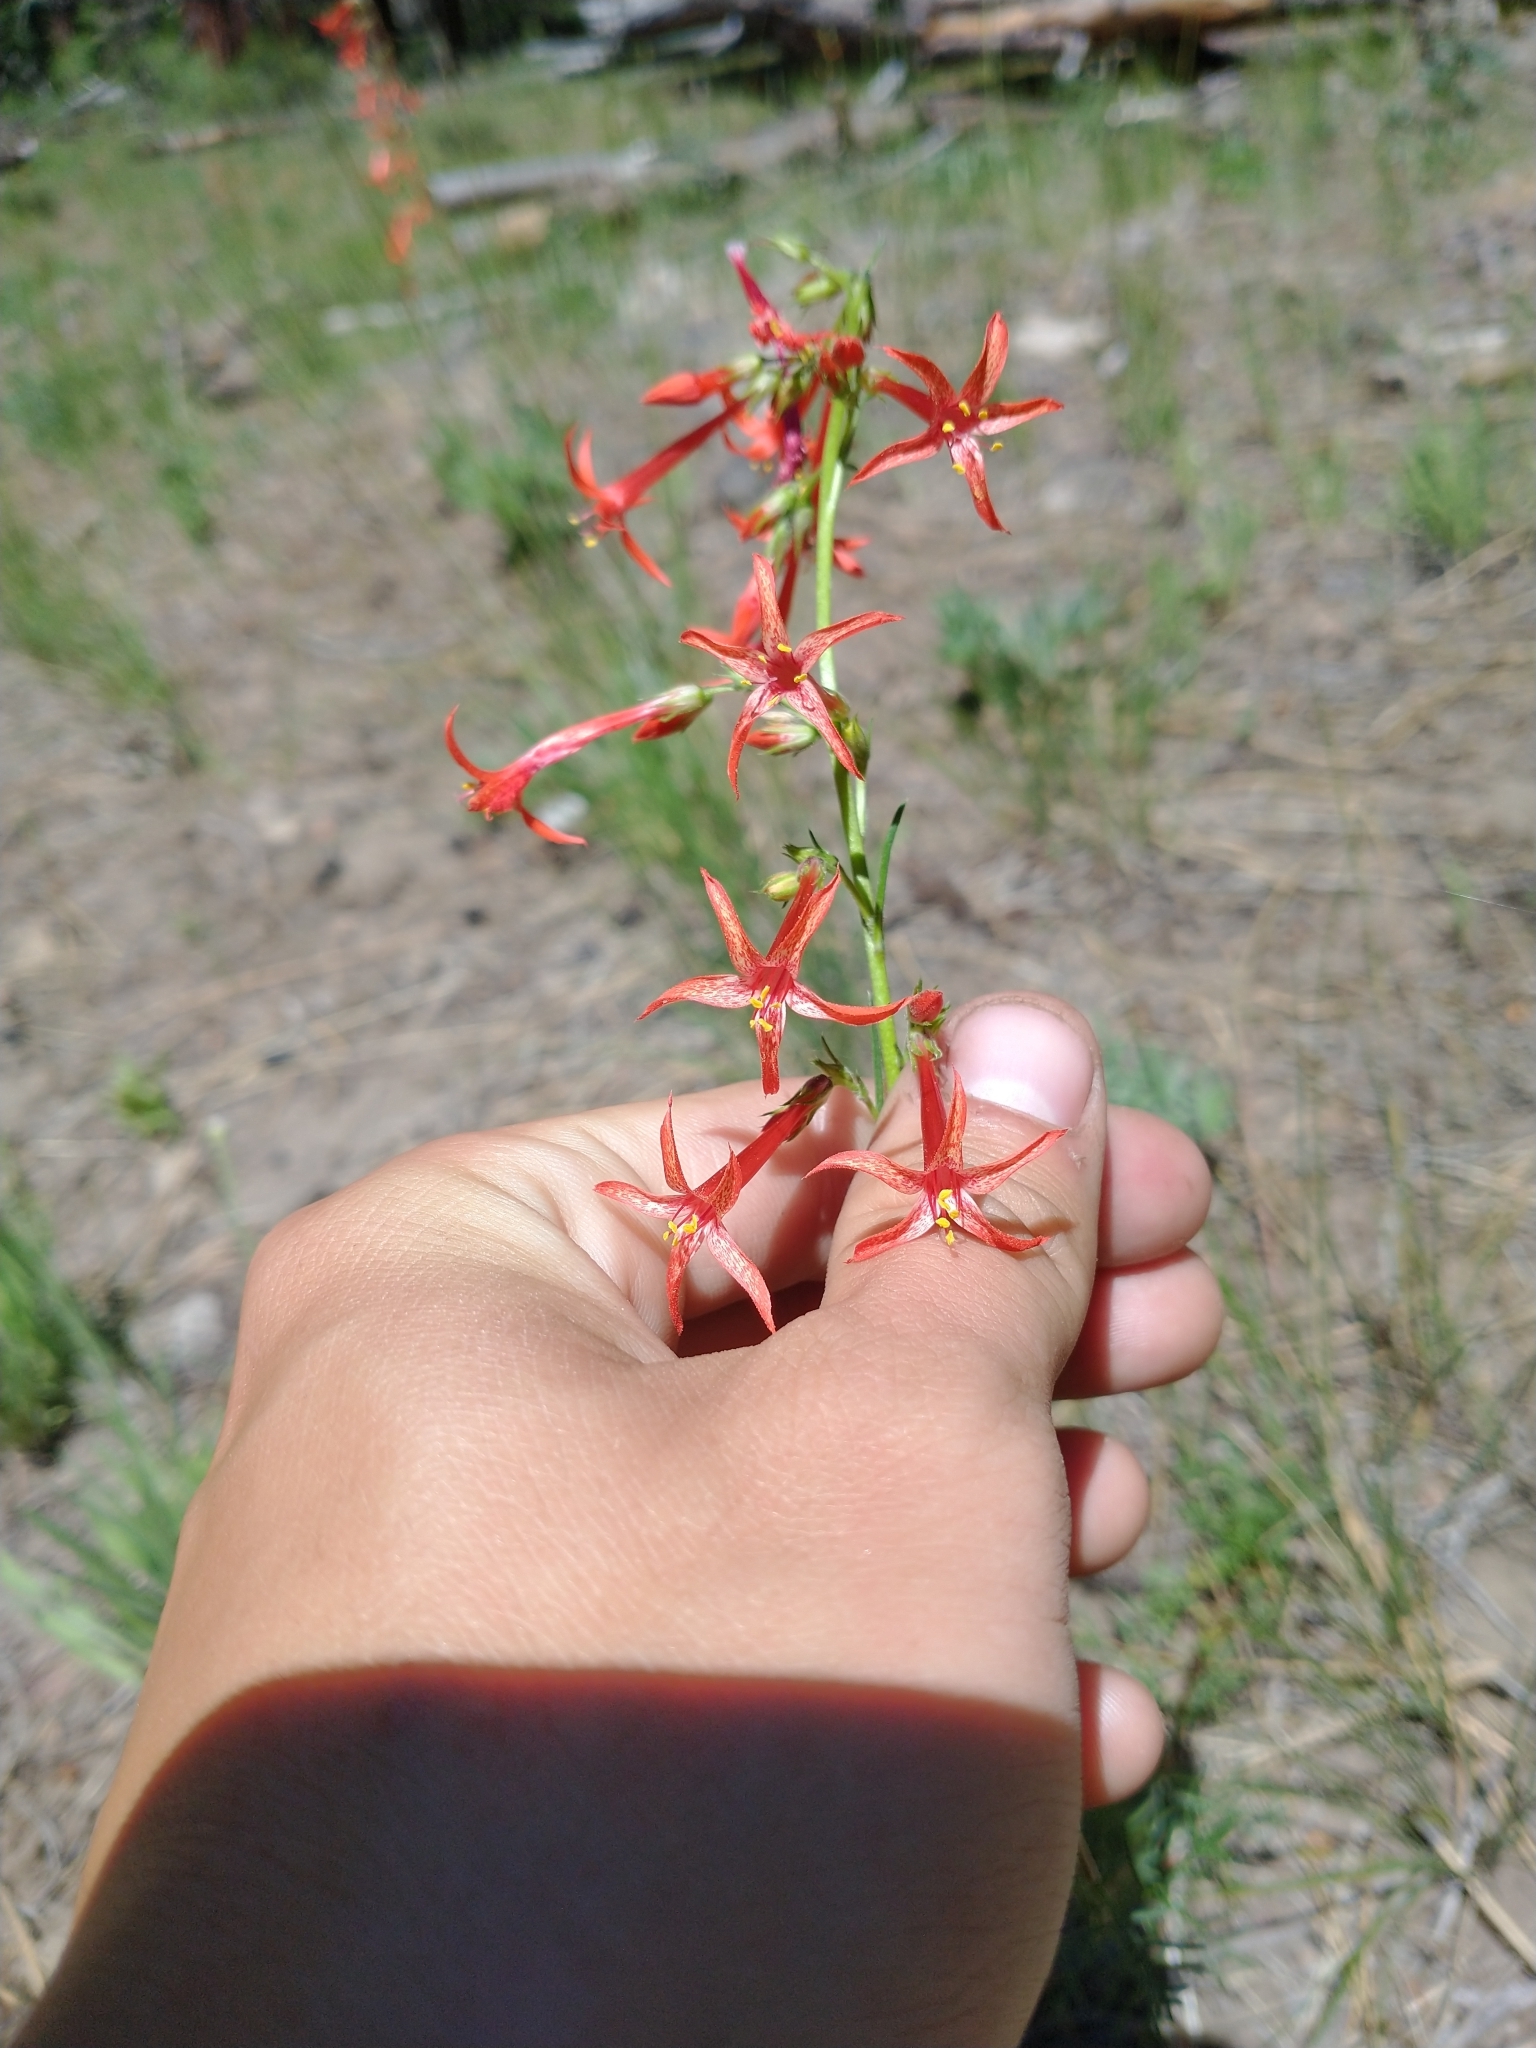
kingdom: Plantae
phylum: Tracheophyta
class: Magnoliopsida
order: Ericales
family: Polemoniaceae
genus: Ipomopsis
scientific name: Ipomopsis aggregata
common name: Scarlet gilia
